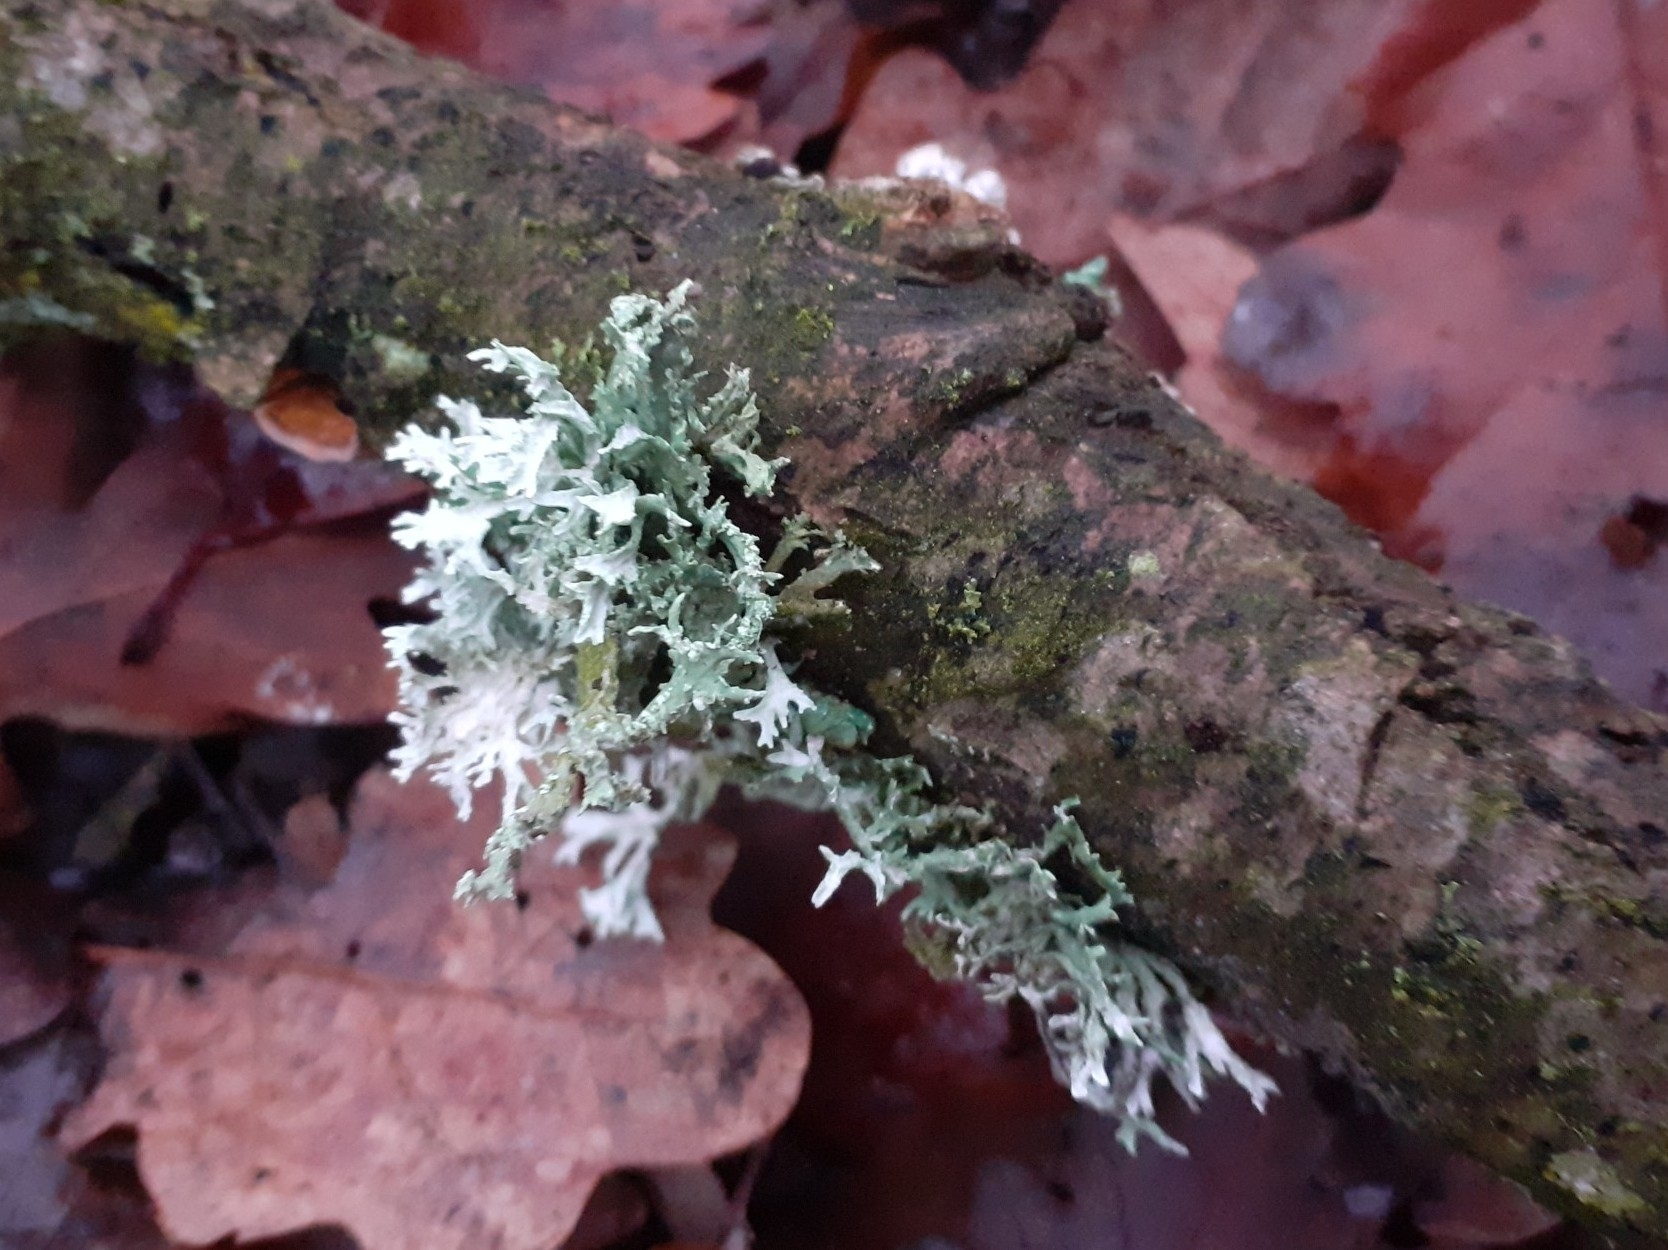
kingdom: Fungi
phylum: Ascomycota
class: Lecanoromycetes
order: Lecanorales
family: Parmeliaceae
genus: Evernia
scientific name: Evernia prunastri
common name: Oak moss
